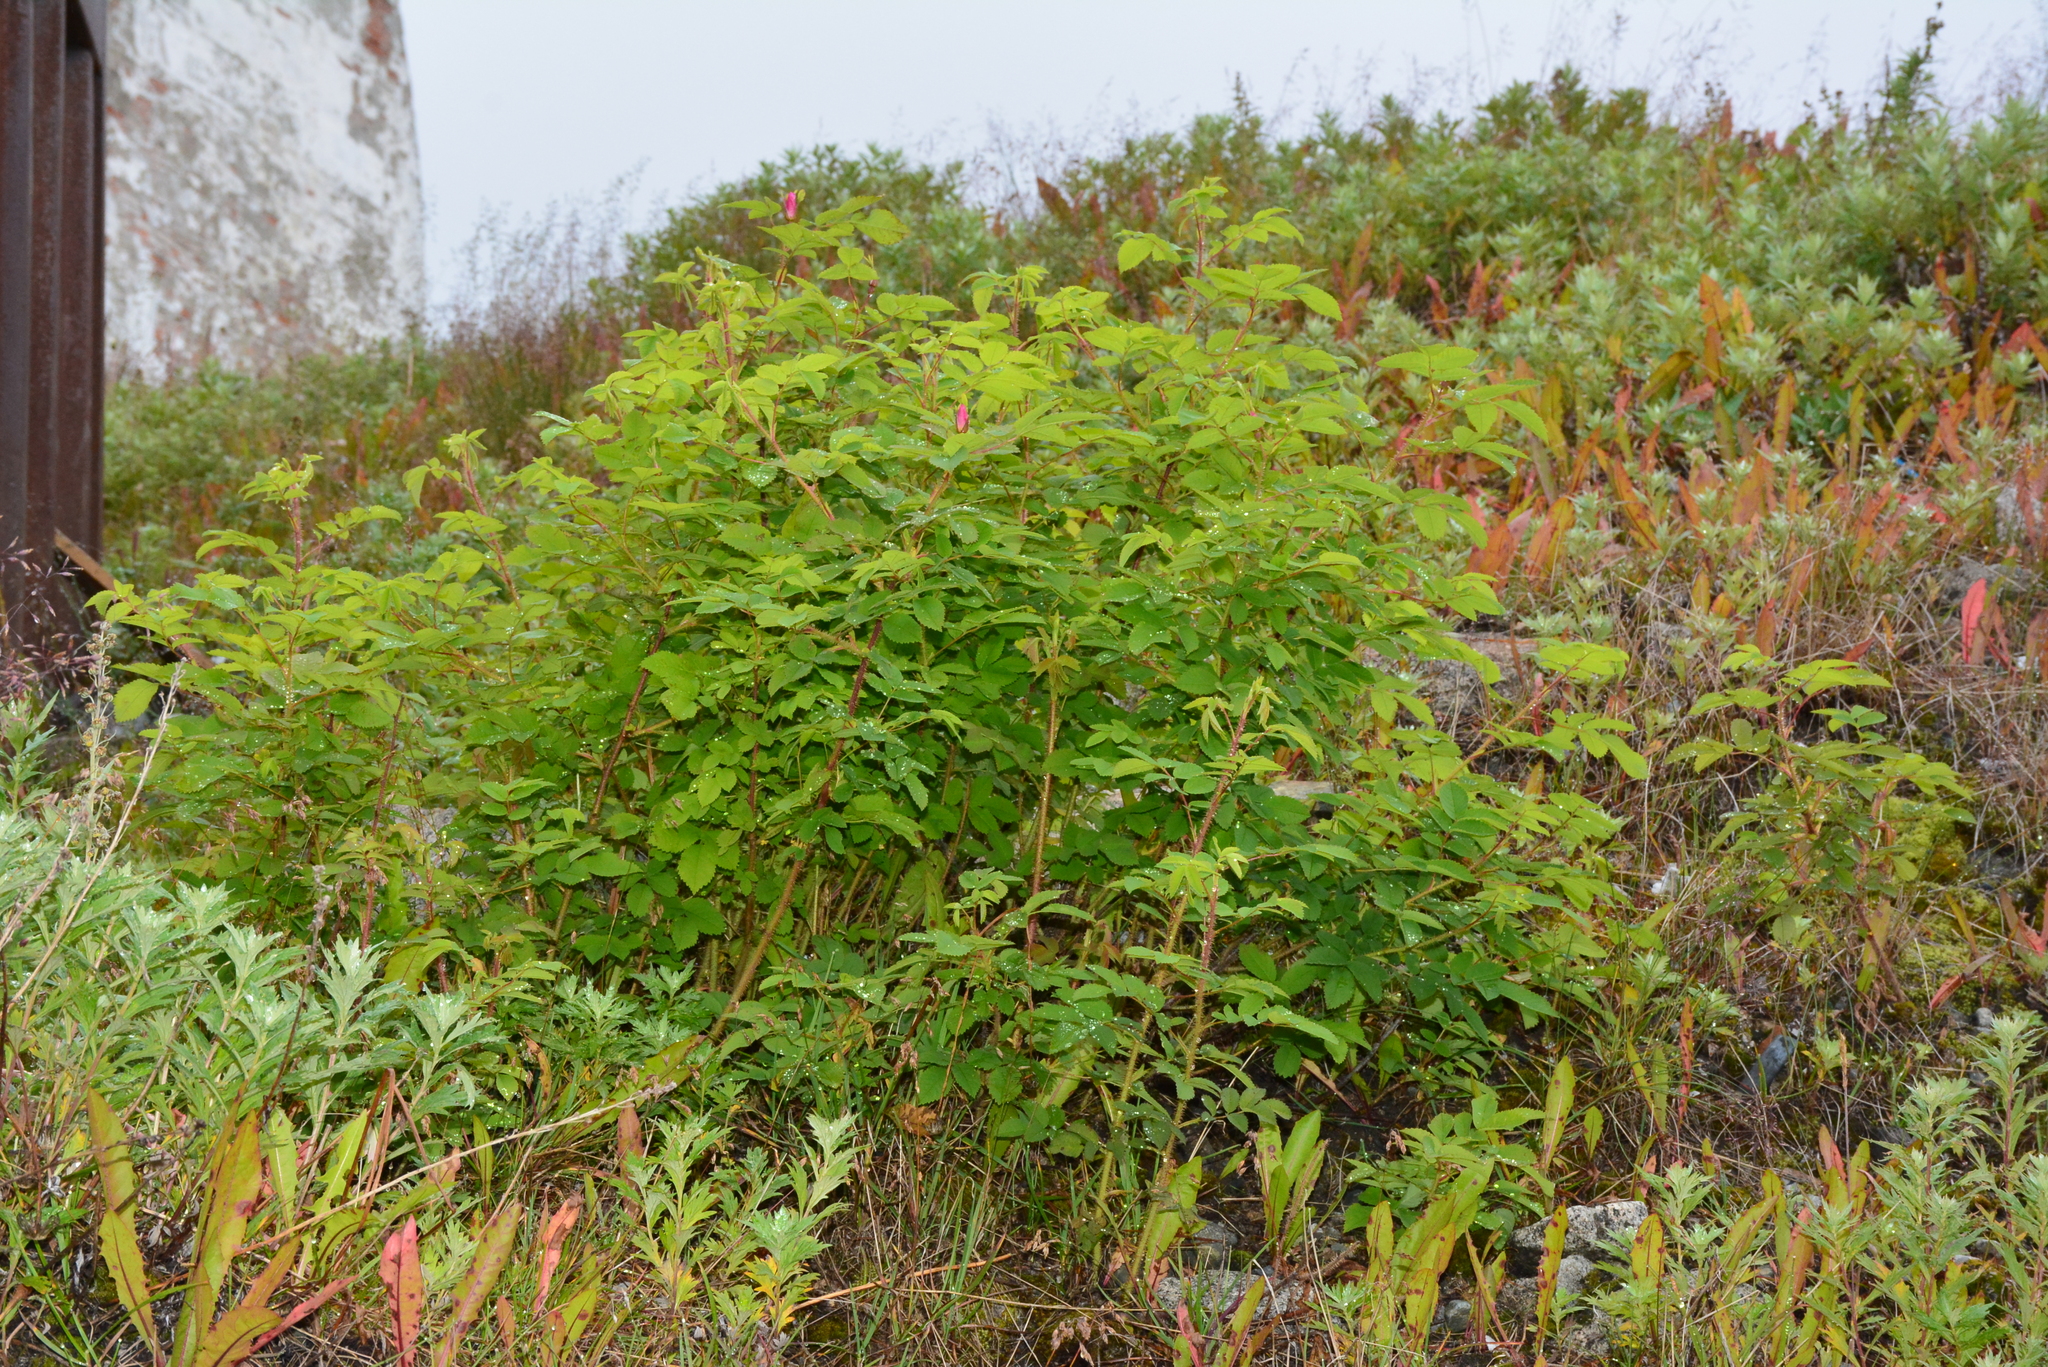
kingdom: Plantae
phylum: Tracheophyta
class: Magnoliopsida
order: Rosales
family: Rosaceae
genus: Rosa
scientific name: Rosa acicularis
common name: Prickly rose
